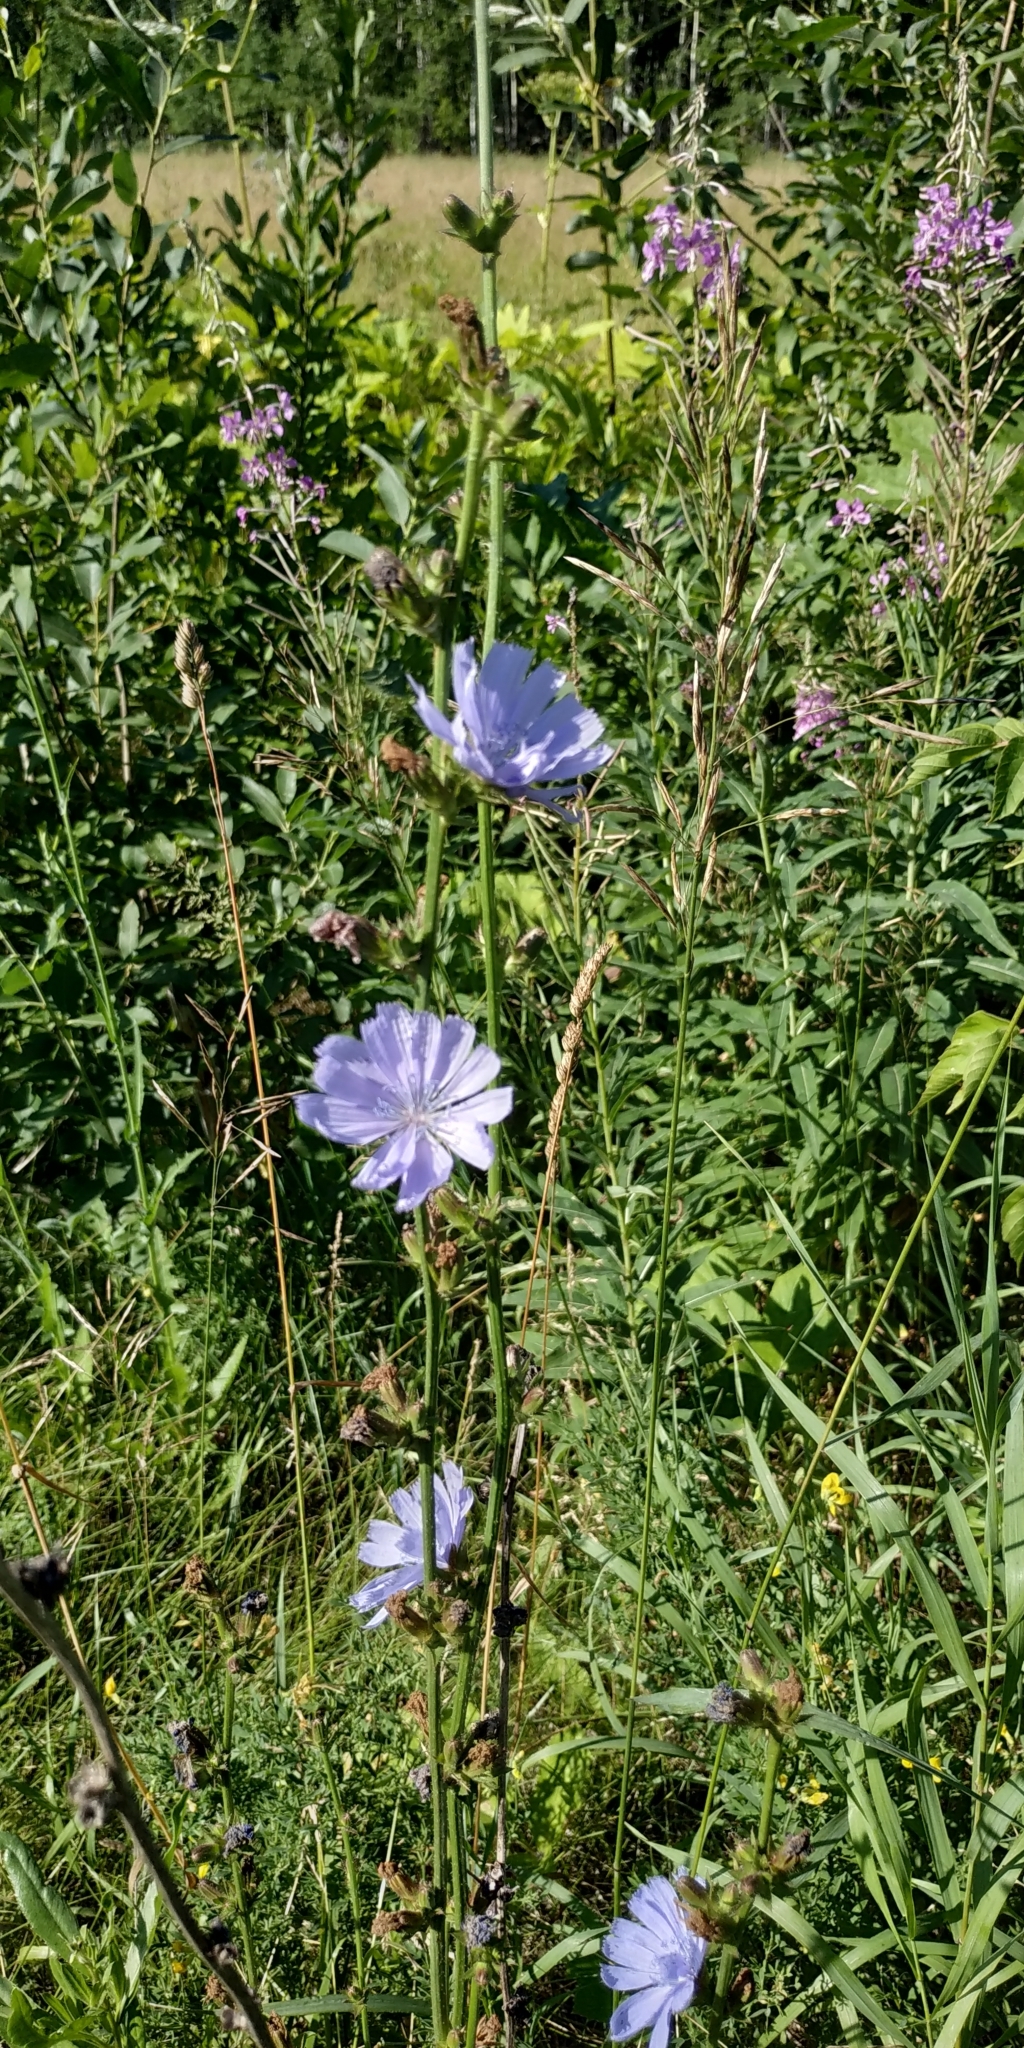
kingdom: Plantae
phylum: Tracheophyta
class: Magnoliopsida
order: Asterales
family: Asteraceae
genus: Cichorium
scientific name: Cichorium intybus
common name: Chicory
